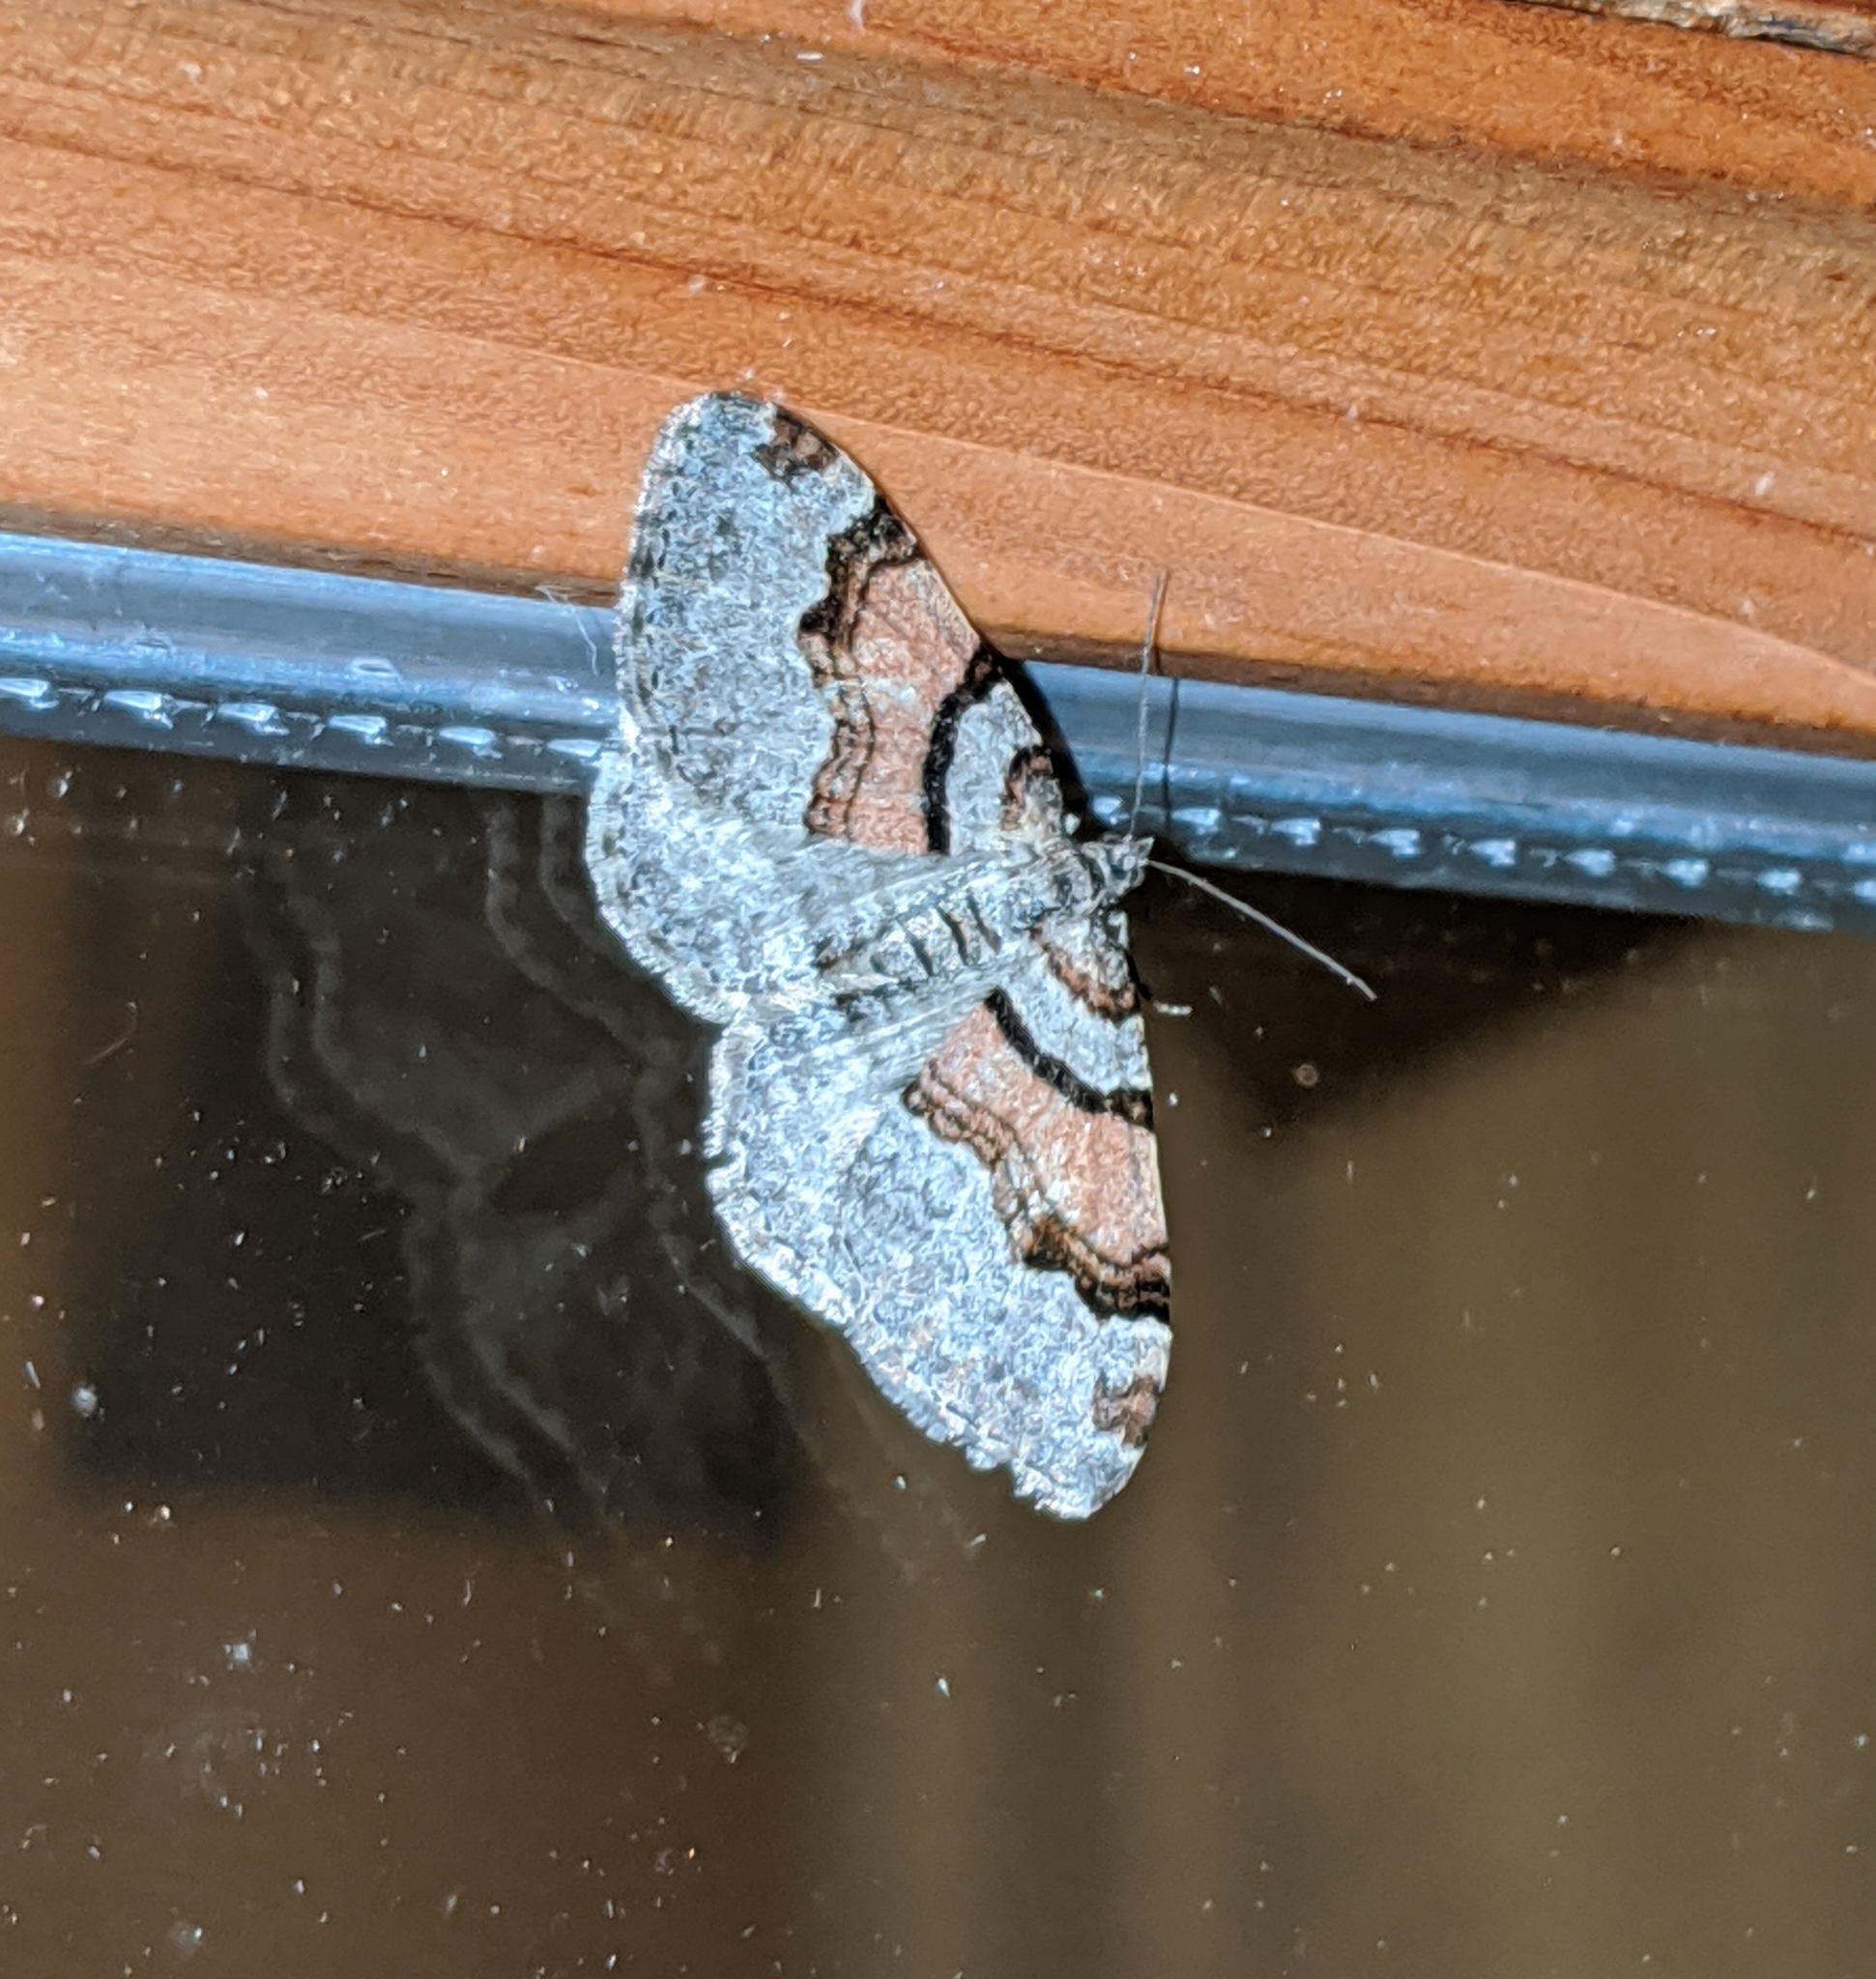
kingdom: Animalia
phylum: Arthropoda
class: Insecta
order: Lepidoptera
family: Geometridae
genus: Xanthorhoe
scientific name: Xanthorhoe labradorensis
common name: Labrador carpet
